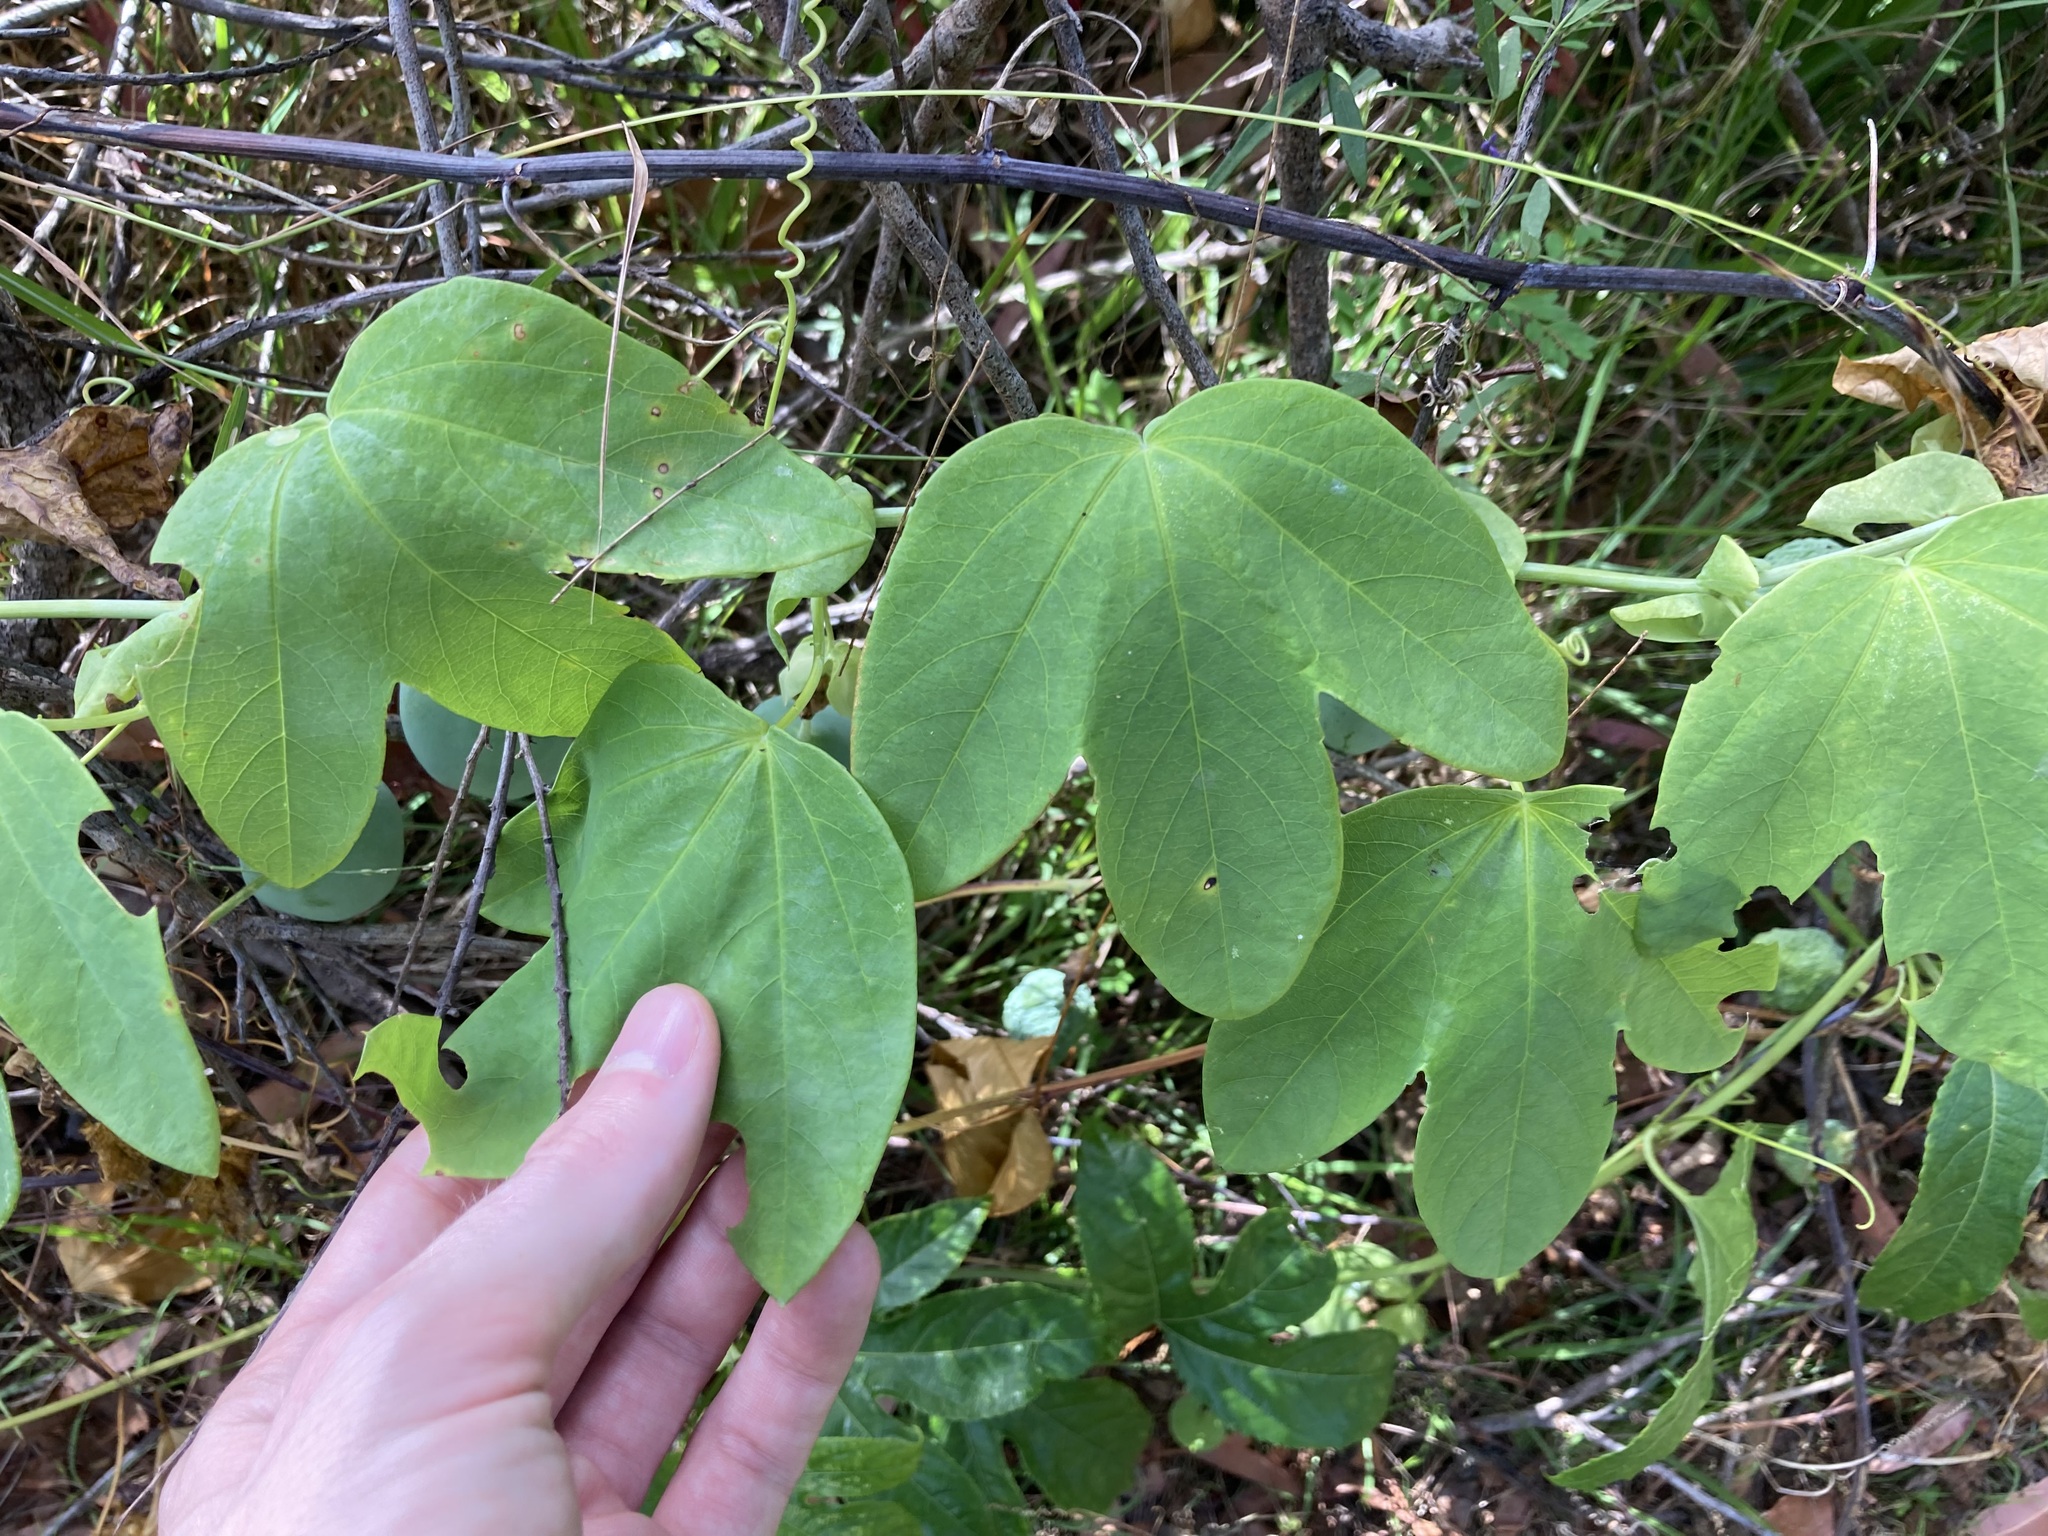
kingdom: Plantae
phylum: Tracheophyta
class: Magnoliopsida
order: Malpighiales
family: Passifloraceae
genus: Passiflora
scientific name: Passiflora subpeltata
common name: White passionflower
